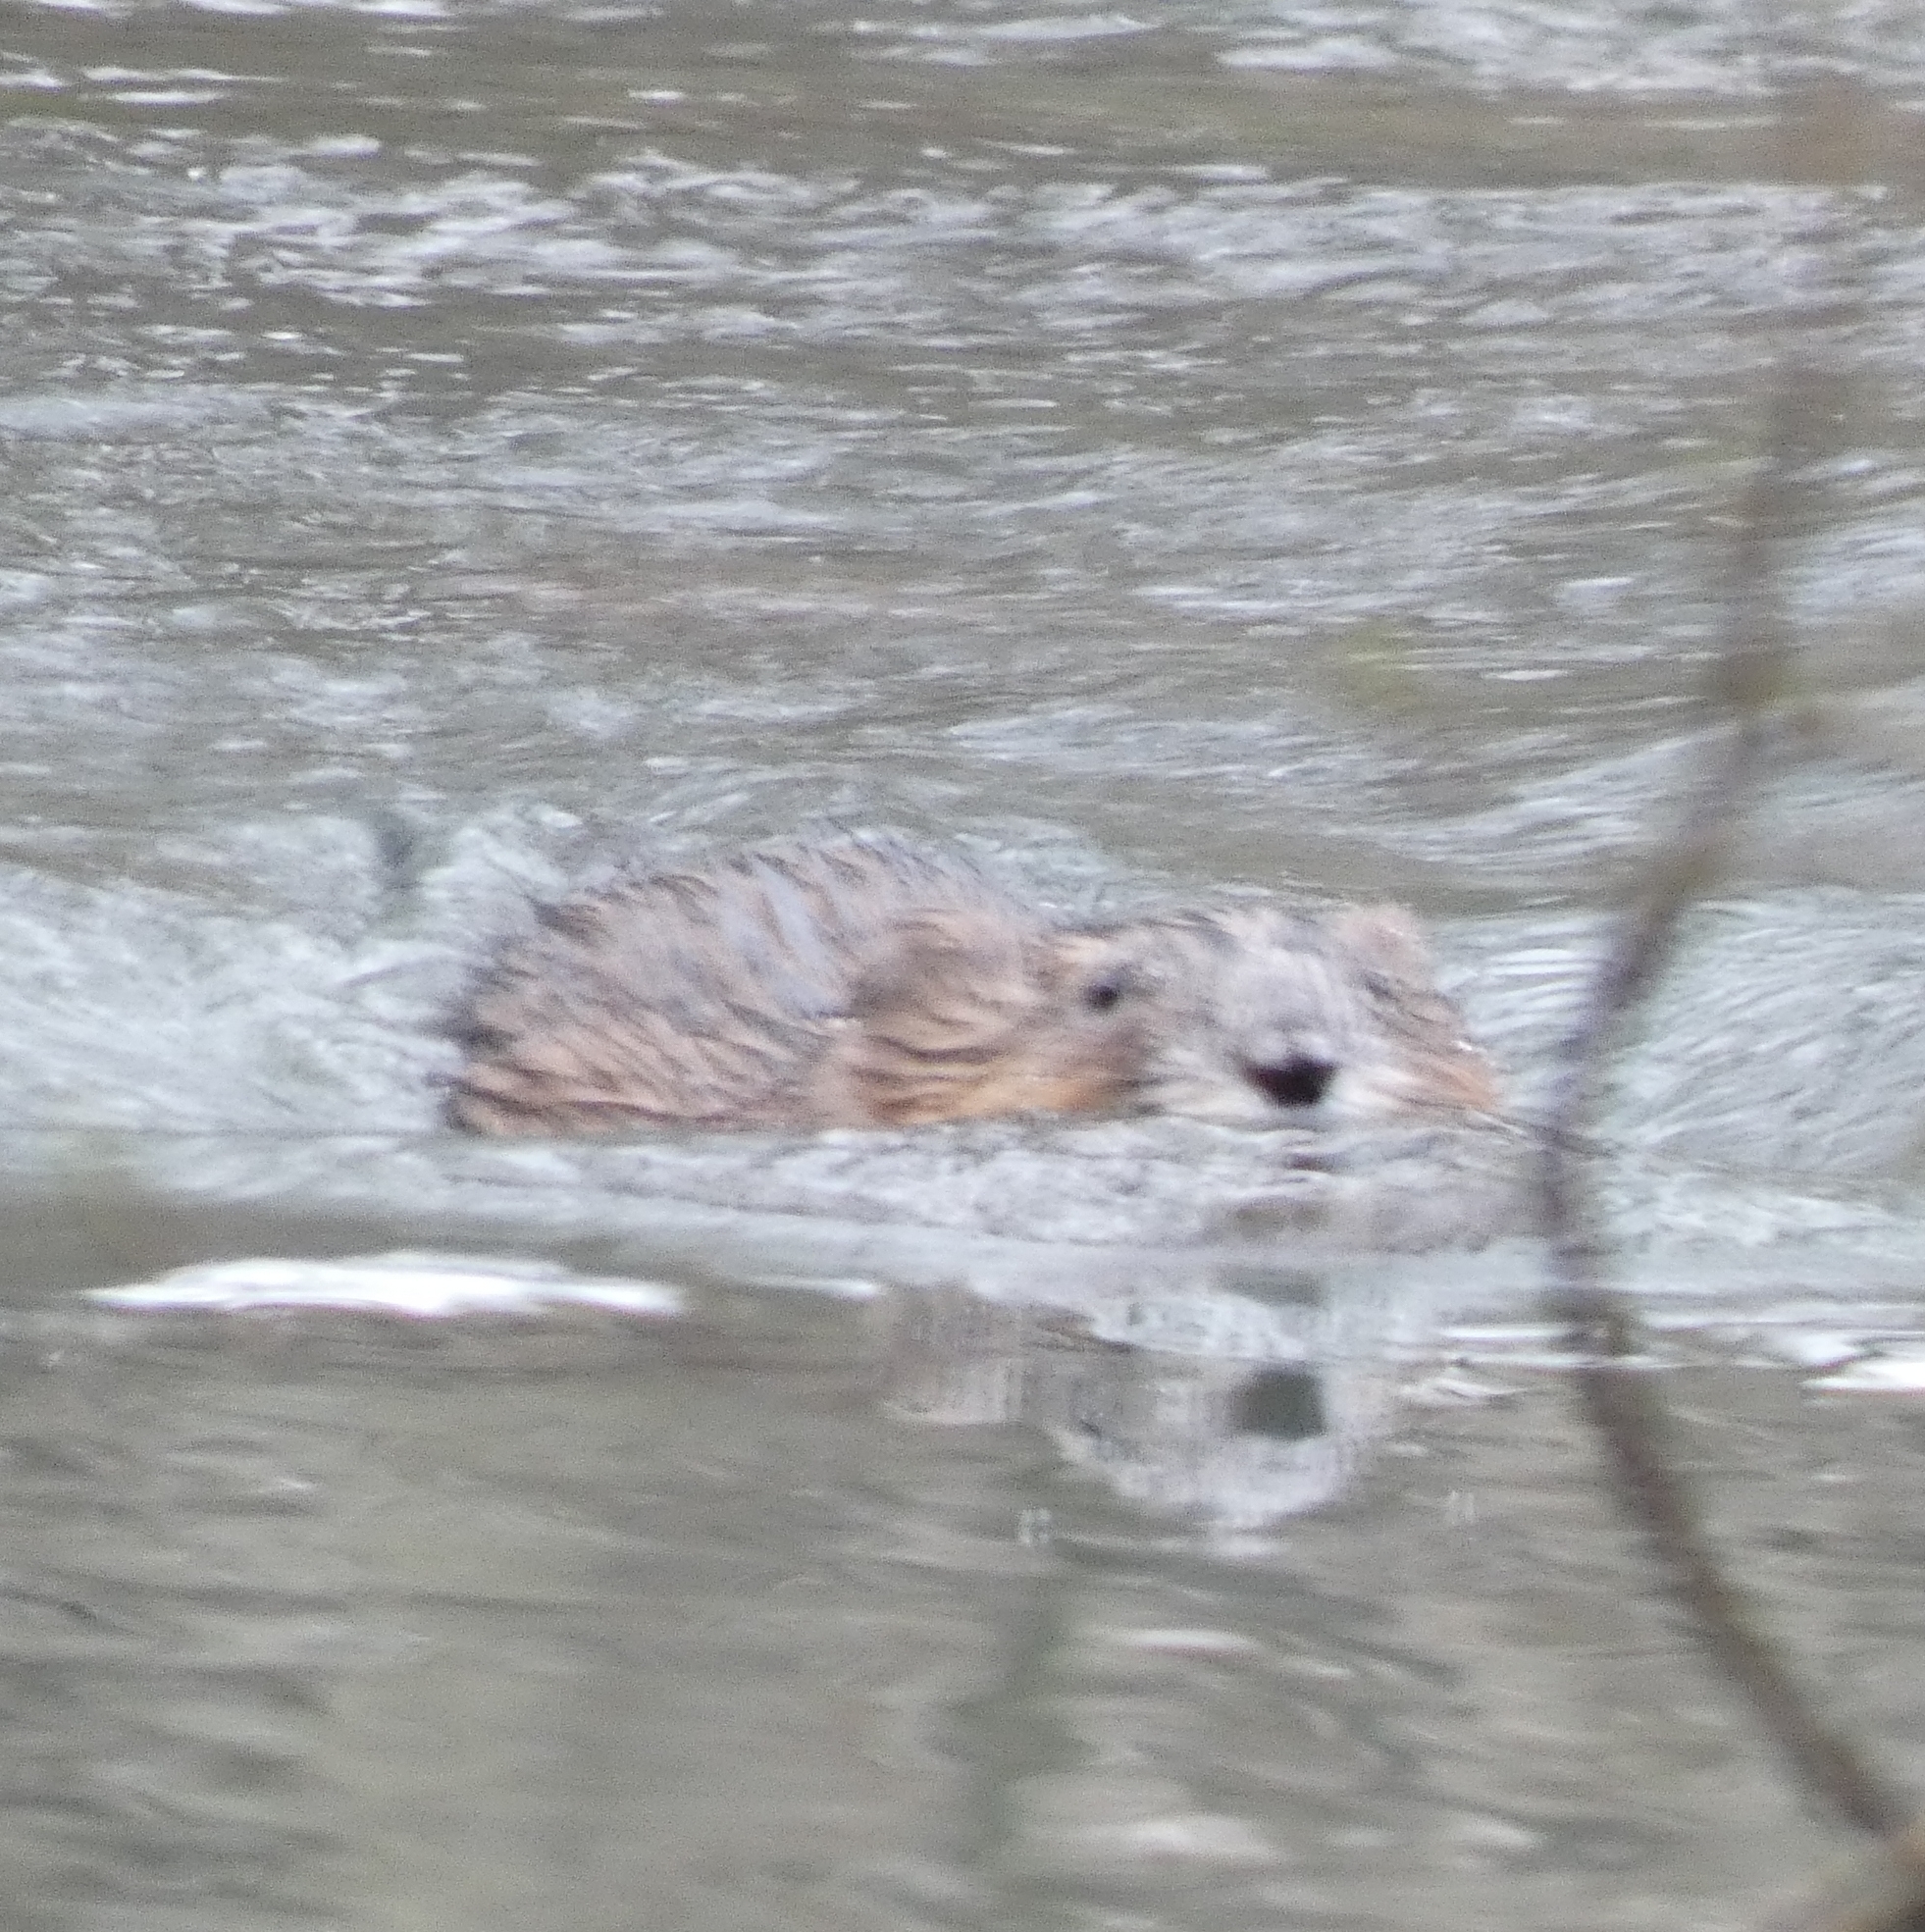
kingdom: Animalia
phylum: Chordata
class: Mammalia
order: Rodentia
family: Cricetidae
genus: Ondatra
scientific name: Ondatra zibethicus
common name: Muskrat
